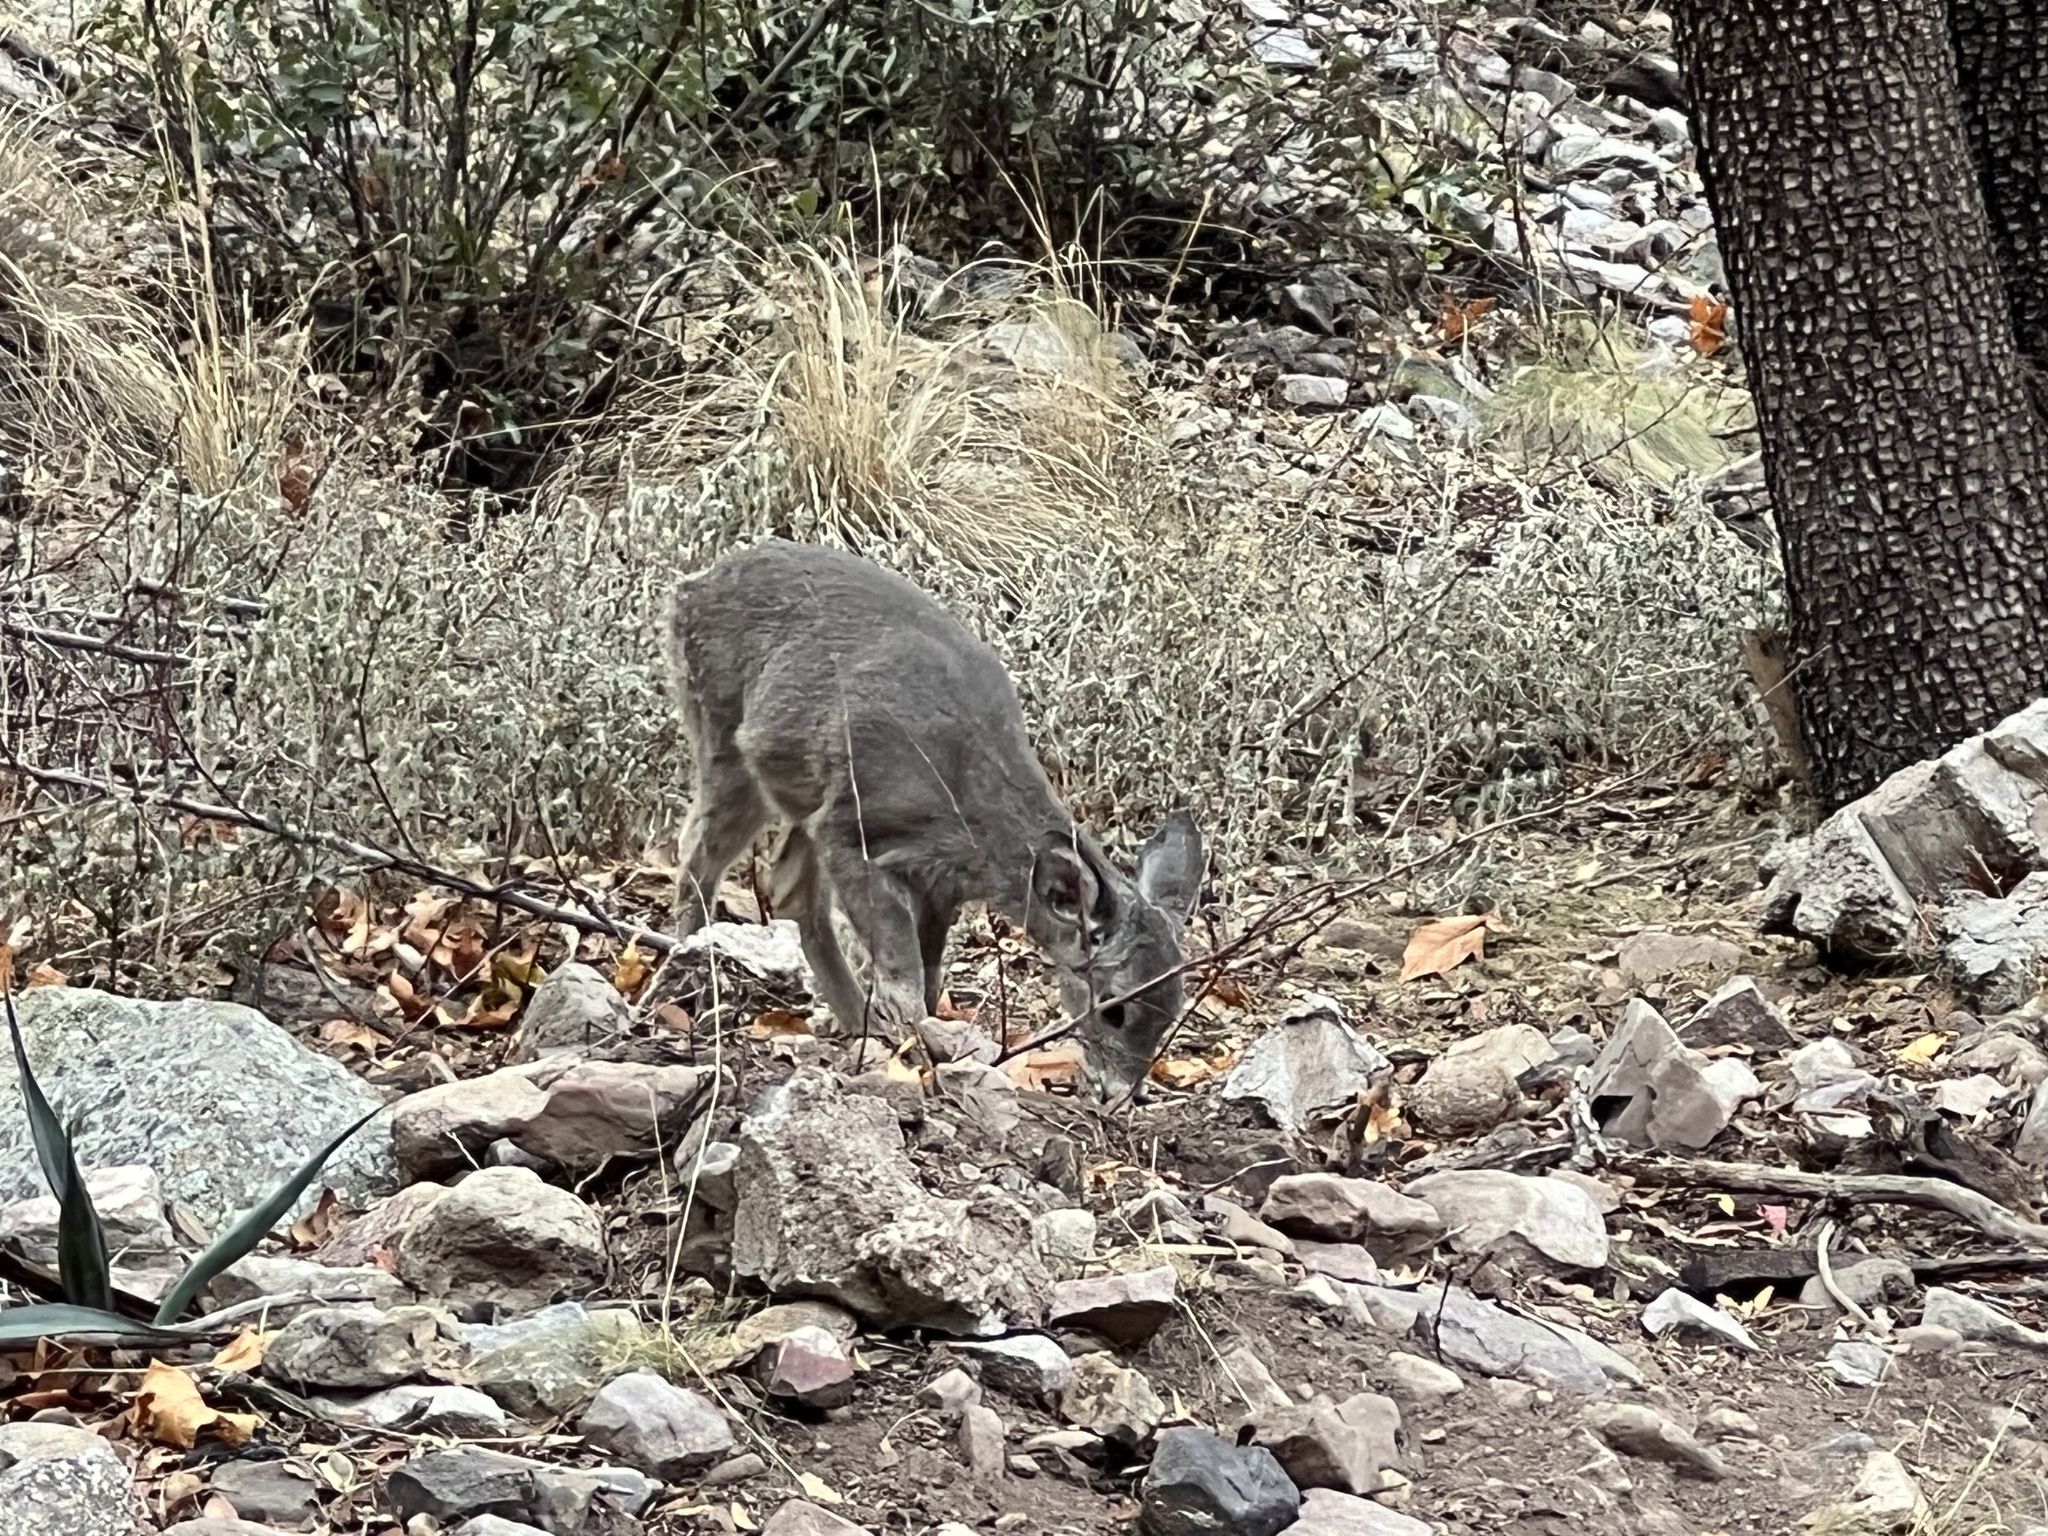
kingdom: Animalia
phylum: Chordata
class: Mammalia
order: Artiodactyla
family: Cervidae
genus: Odocoileus
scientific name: Odocoileus virginianus
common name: White-tailed deer
